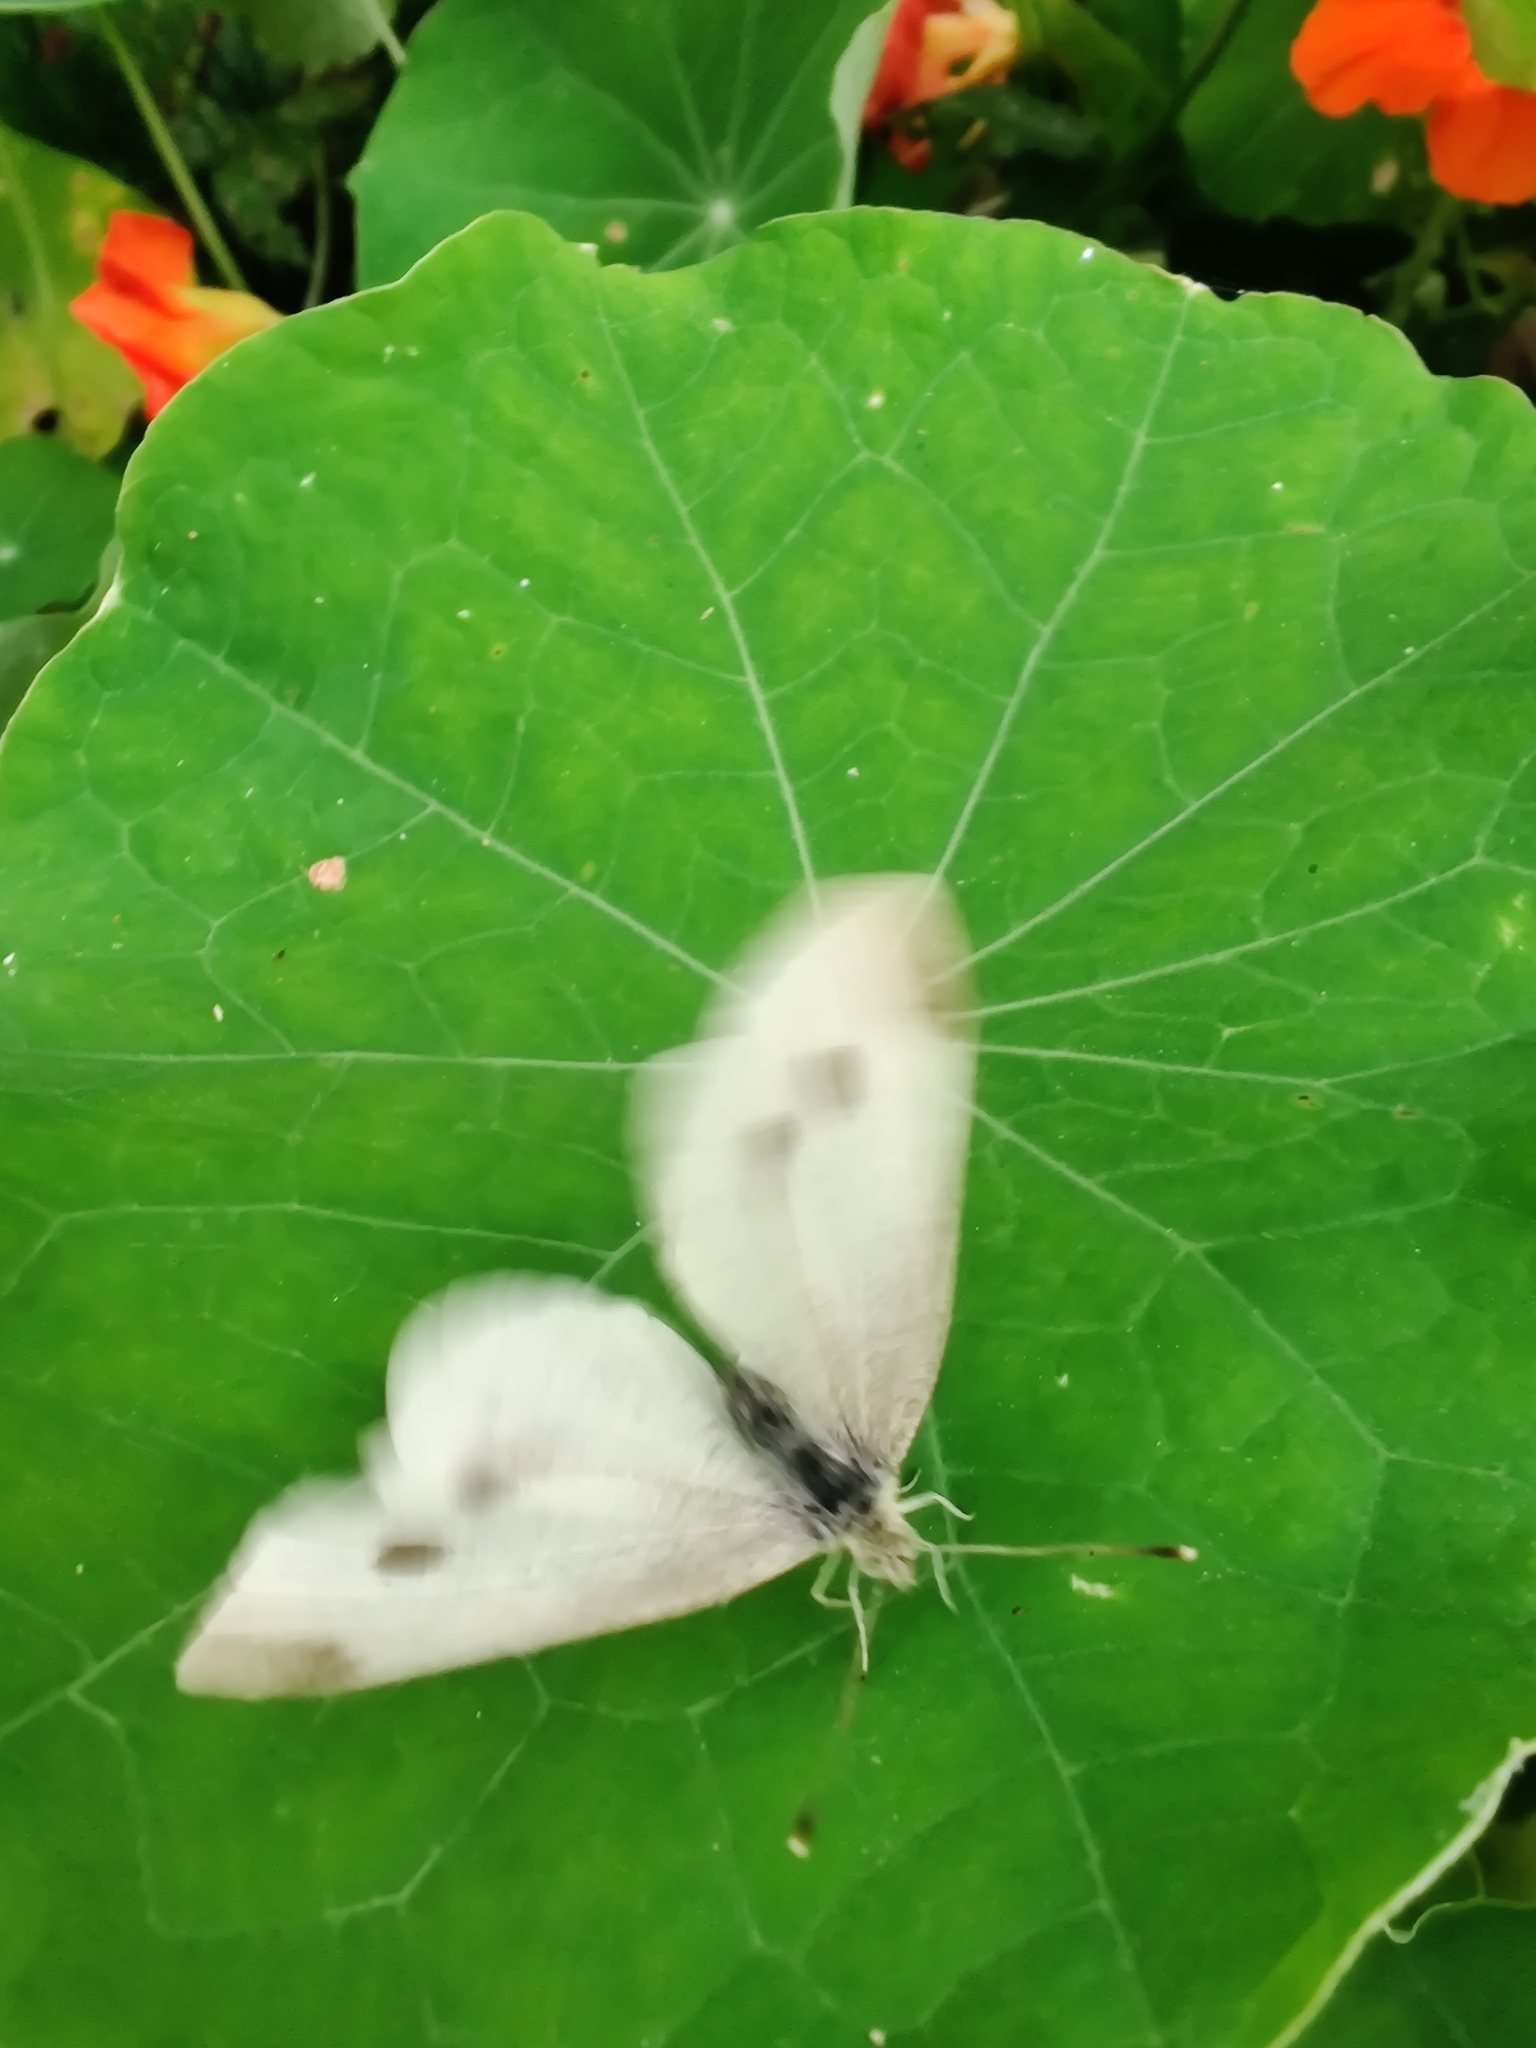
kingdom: Animalia
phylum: Arthropoda
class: Insecta
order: Lepidoptera
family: Pieridae
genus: Pieris
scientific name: Pieris rapae
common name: Small white
